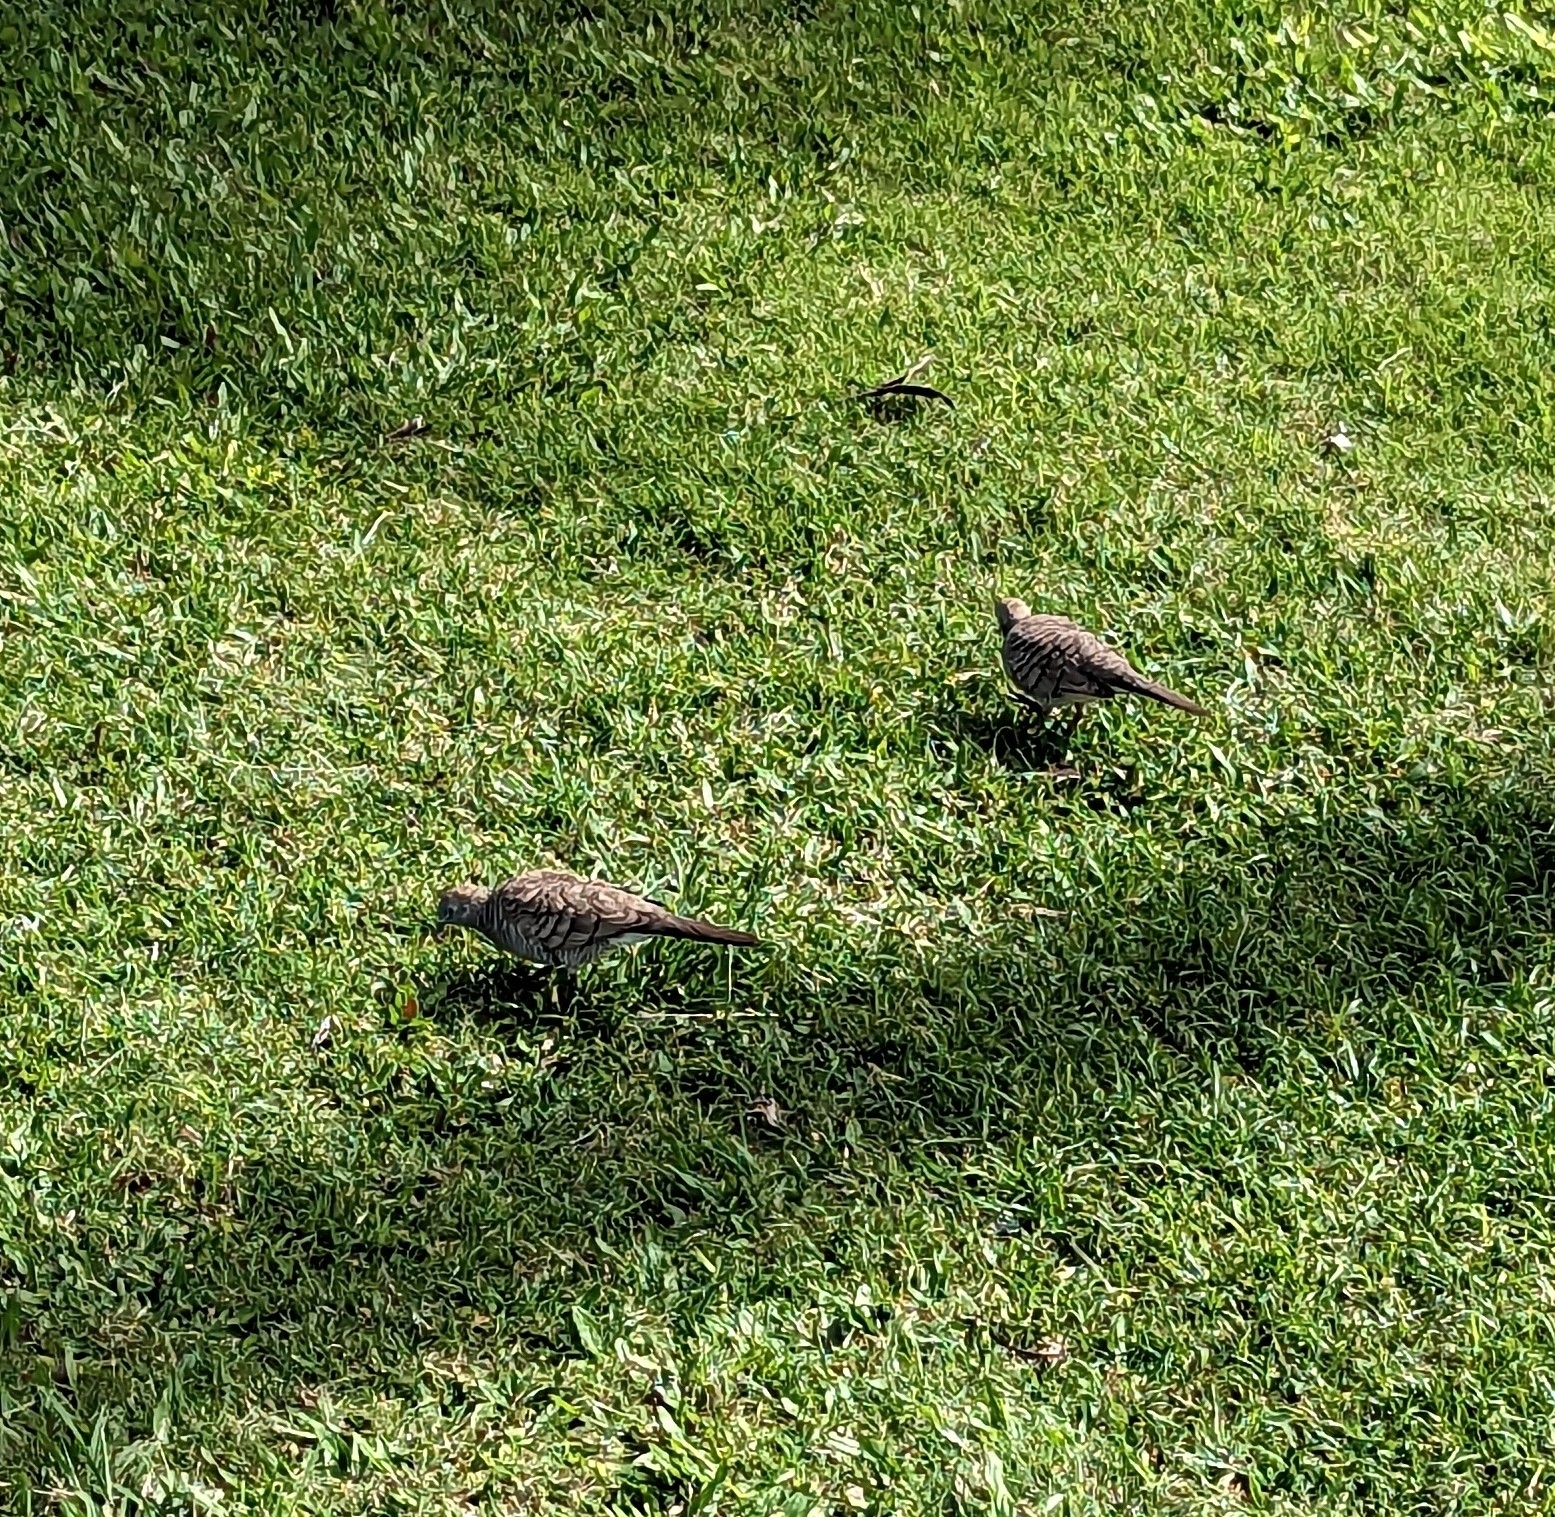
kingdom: Animalia
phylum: Chordata
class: Aves
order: Columbiformes
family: Columbidae
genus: Geopelia
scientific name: Geopelia striata
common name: Zebra dove
